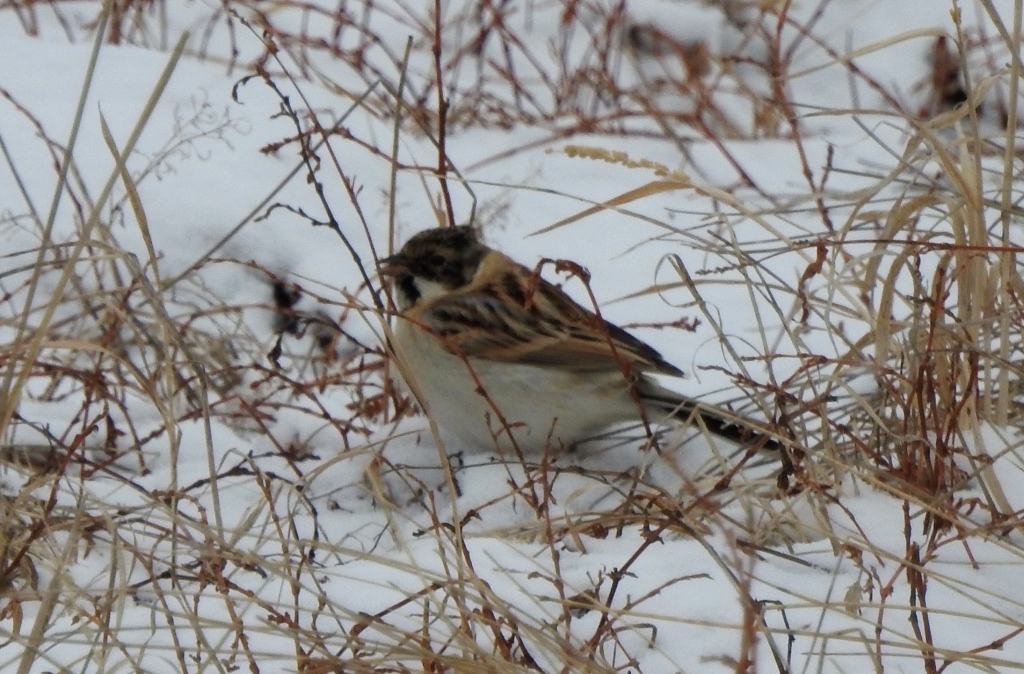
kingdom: Animalia
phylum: Chordata
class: Aves
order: Passeriformes
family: Emberizidae
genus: Emberiza
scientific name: Emberiza pallasi
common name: Pallas's reed bunting
